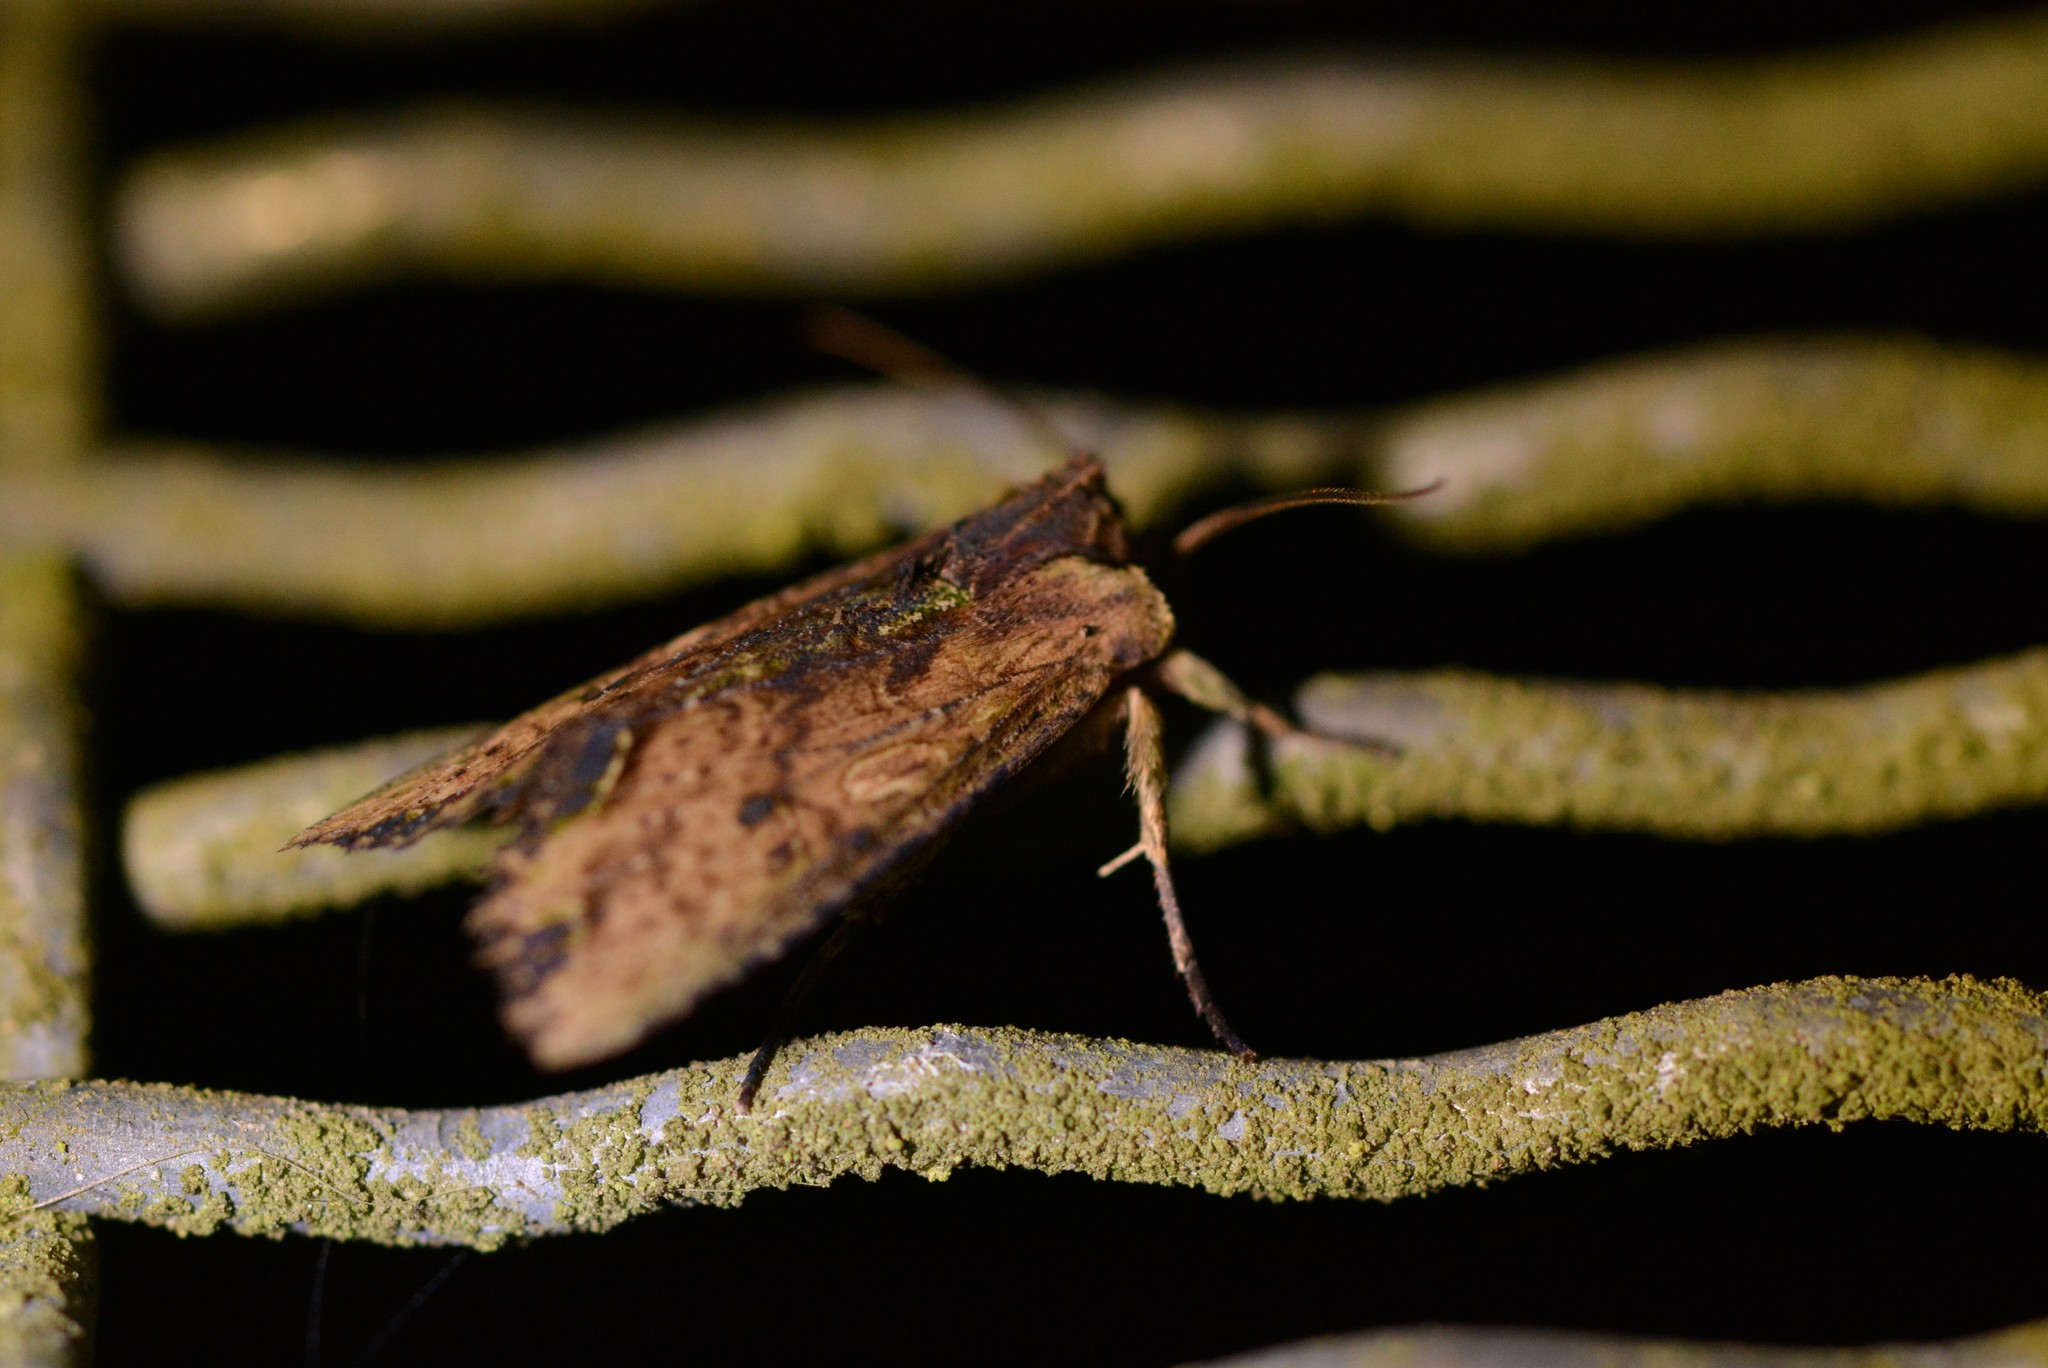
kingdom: Animalia
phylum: Arthropoda
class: Insecta
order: Lepidoptera
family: Noctuidae
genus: Meterana
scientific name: Meterana coeleno
